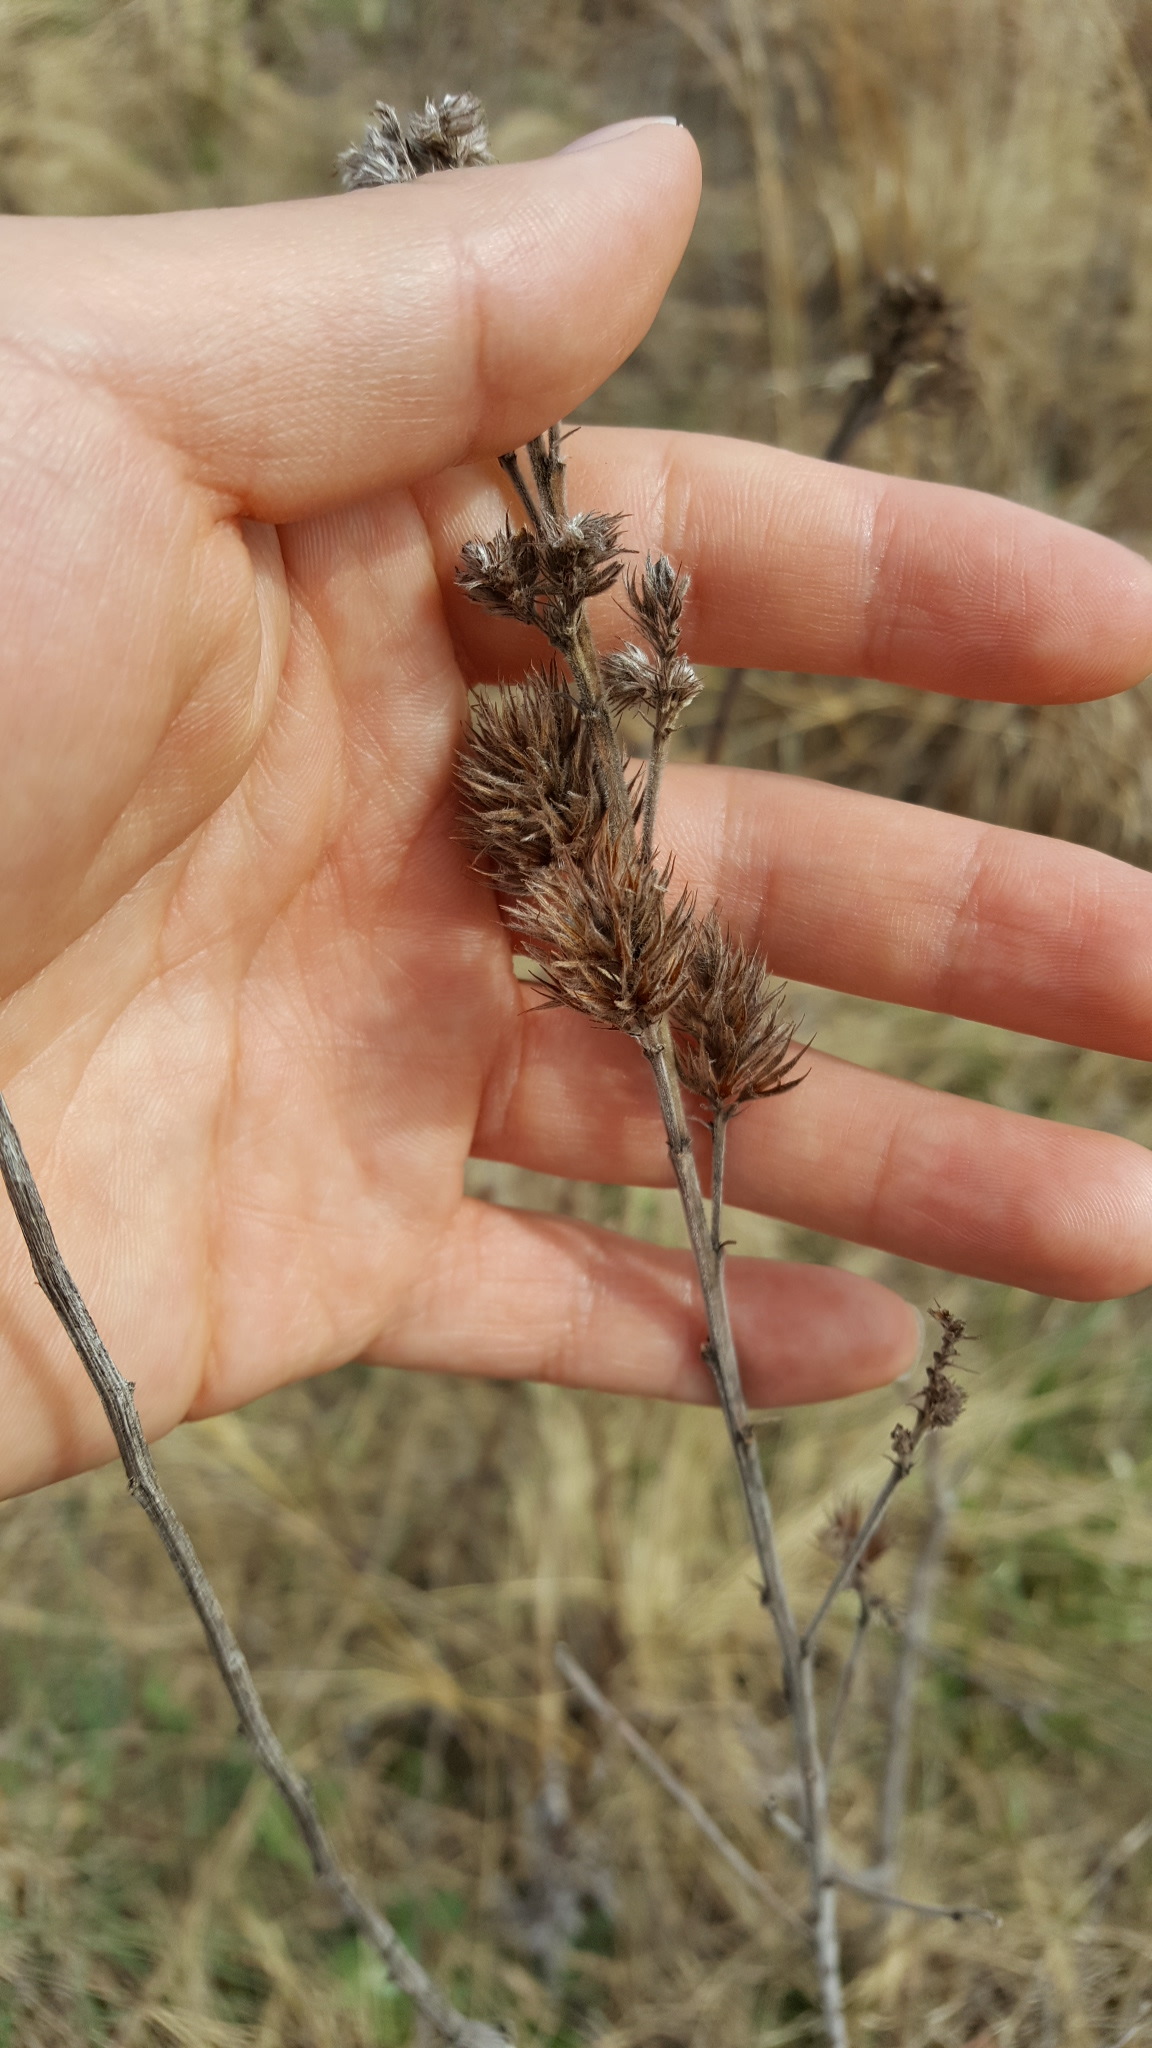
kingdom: Plantae
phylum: Tracheophyta
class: Magnoliopsida
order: Fabales
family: Fabaceae
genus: Lespedeza
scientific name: Lespedeza capitata
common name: Dusty clover
